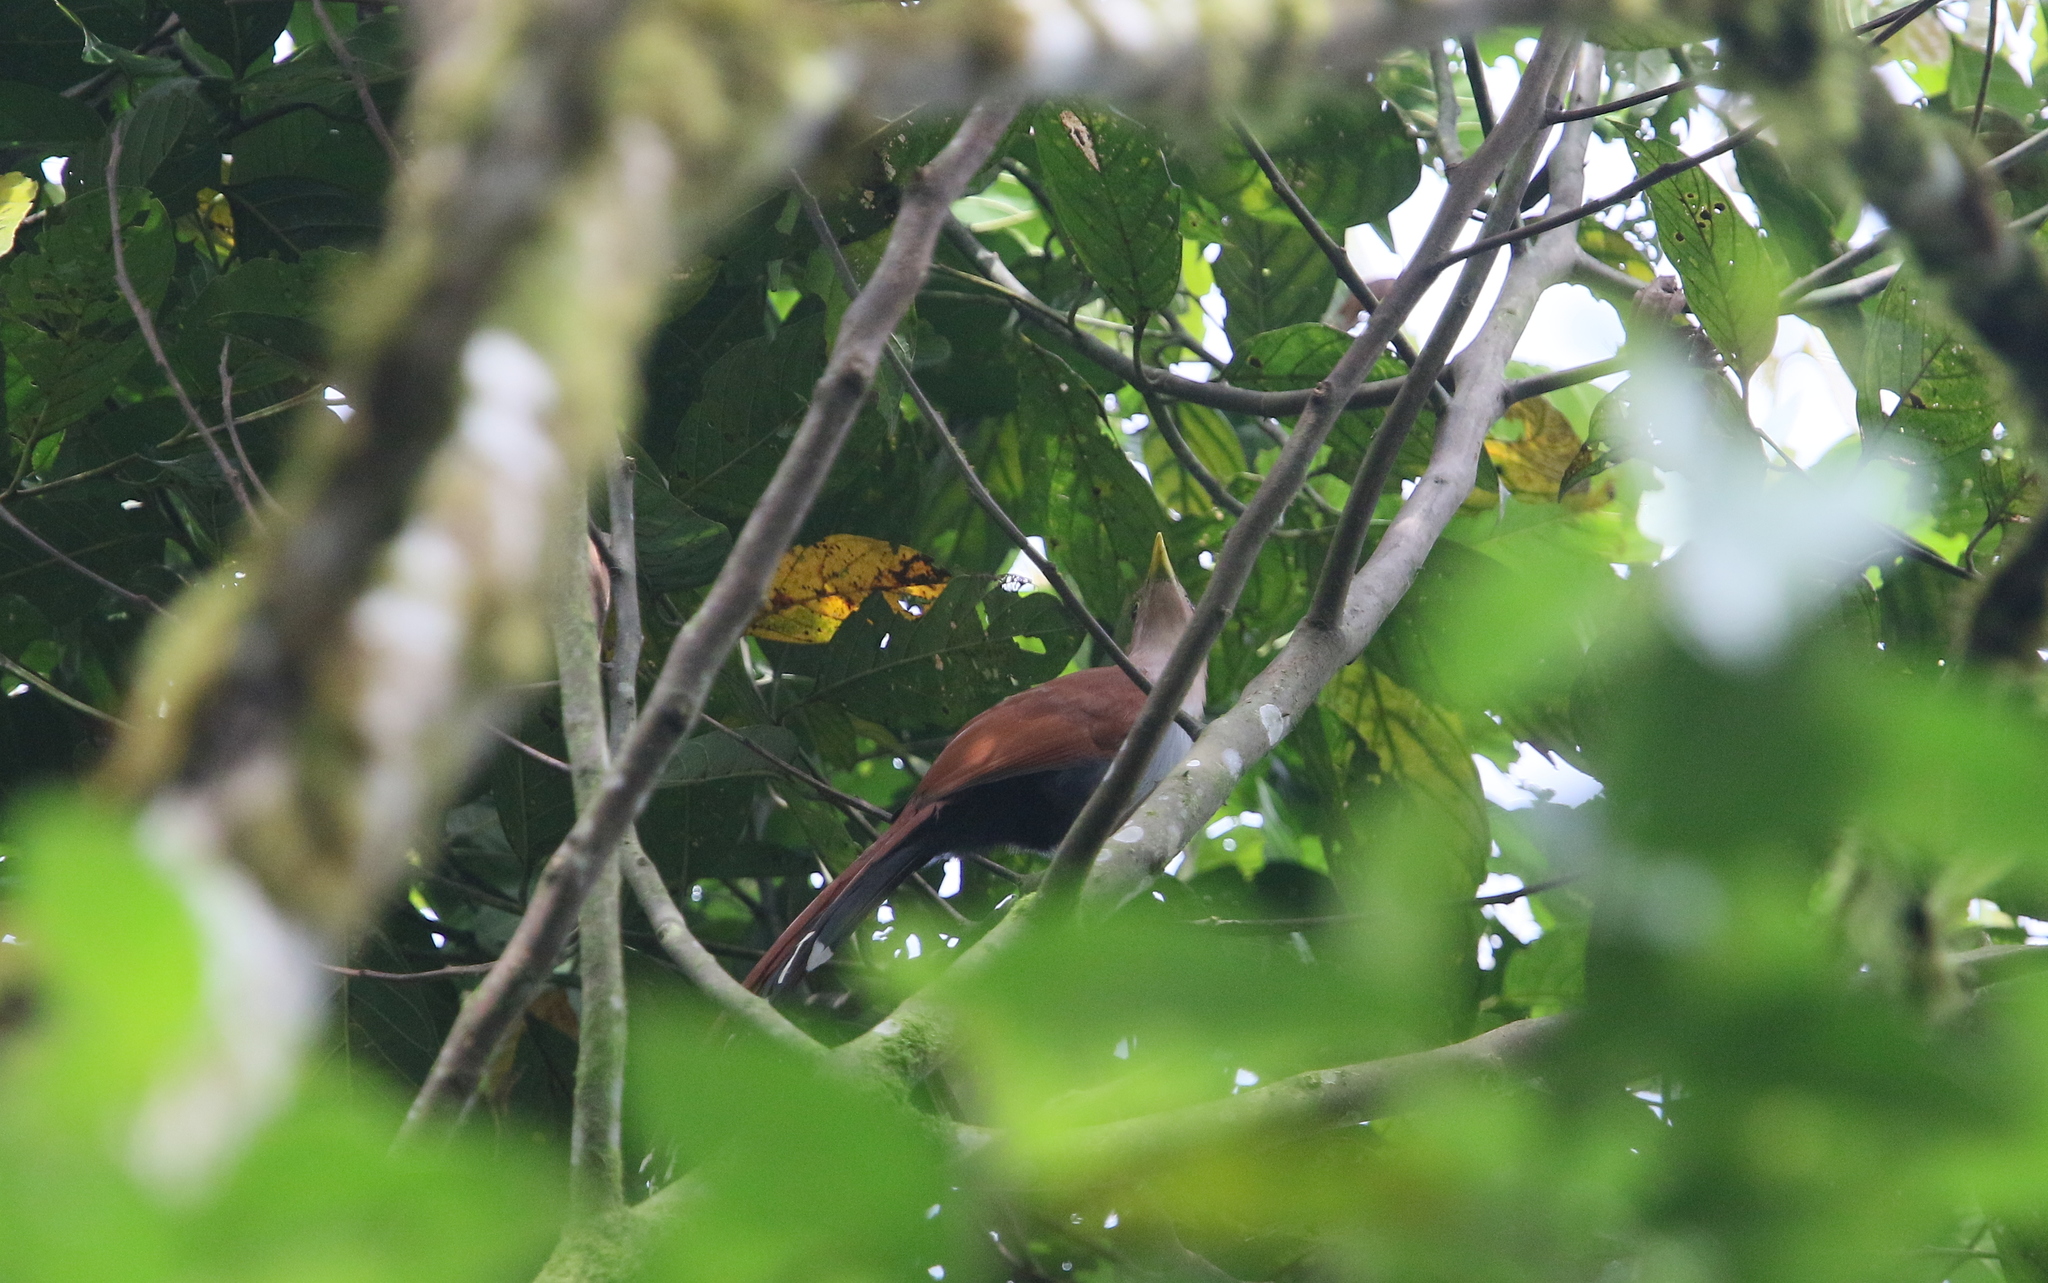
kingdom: Animalia
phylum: Chordata
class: Aves
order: Cuculiformes
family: Cuculidae
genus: Piaya
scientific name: Piaya cayana
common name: Squirrel cuckoo
